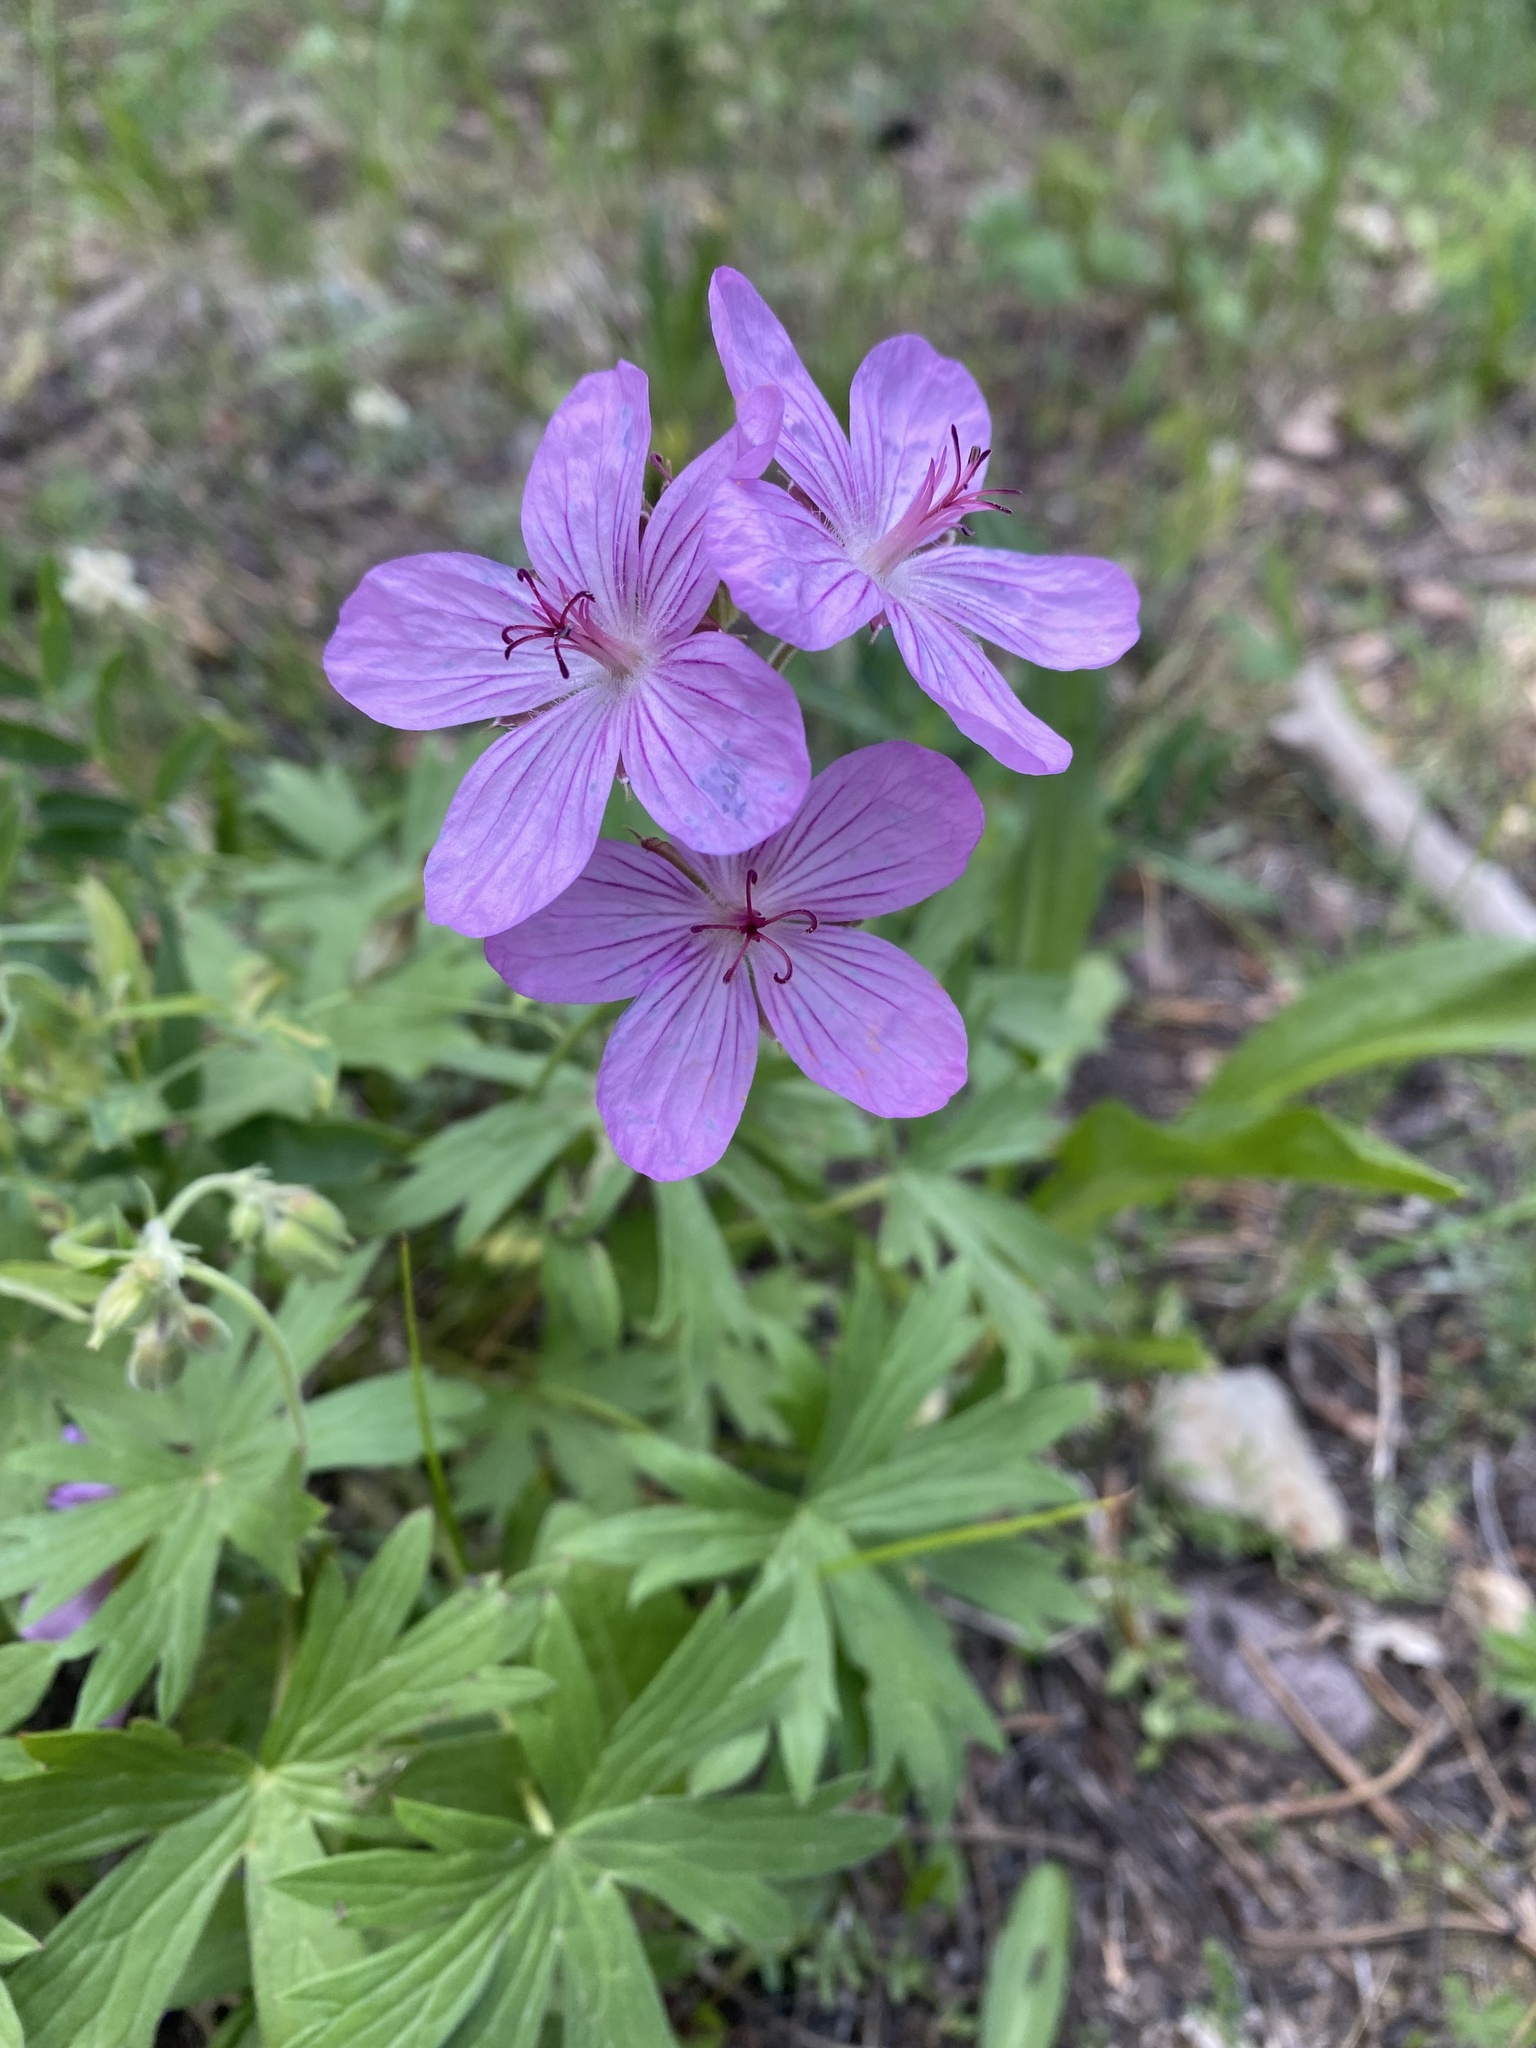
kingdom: Plantae
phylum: Tracheophyta
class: Magnoliopsida
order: Geraniales
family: Geraniaceae
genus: Geranium
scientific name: Geranium viscosissimum
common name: Purple geranium
